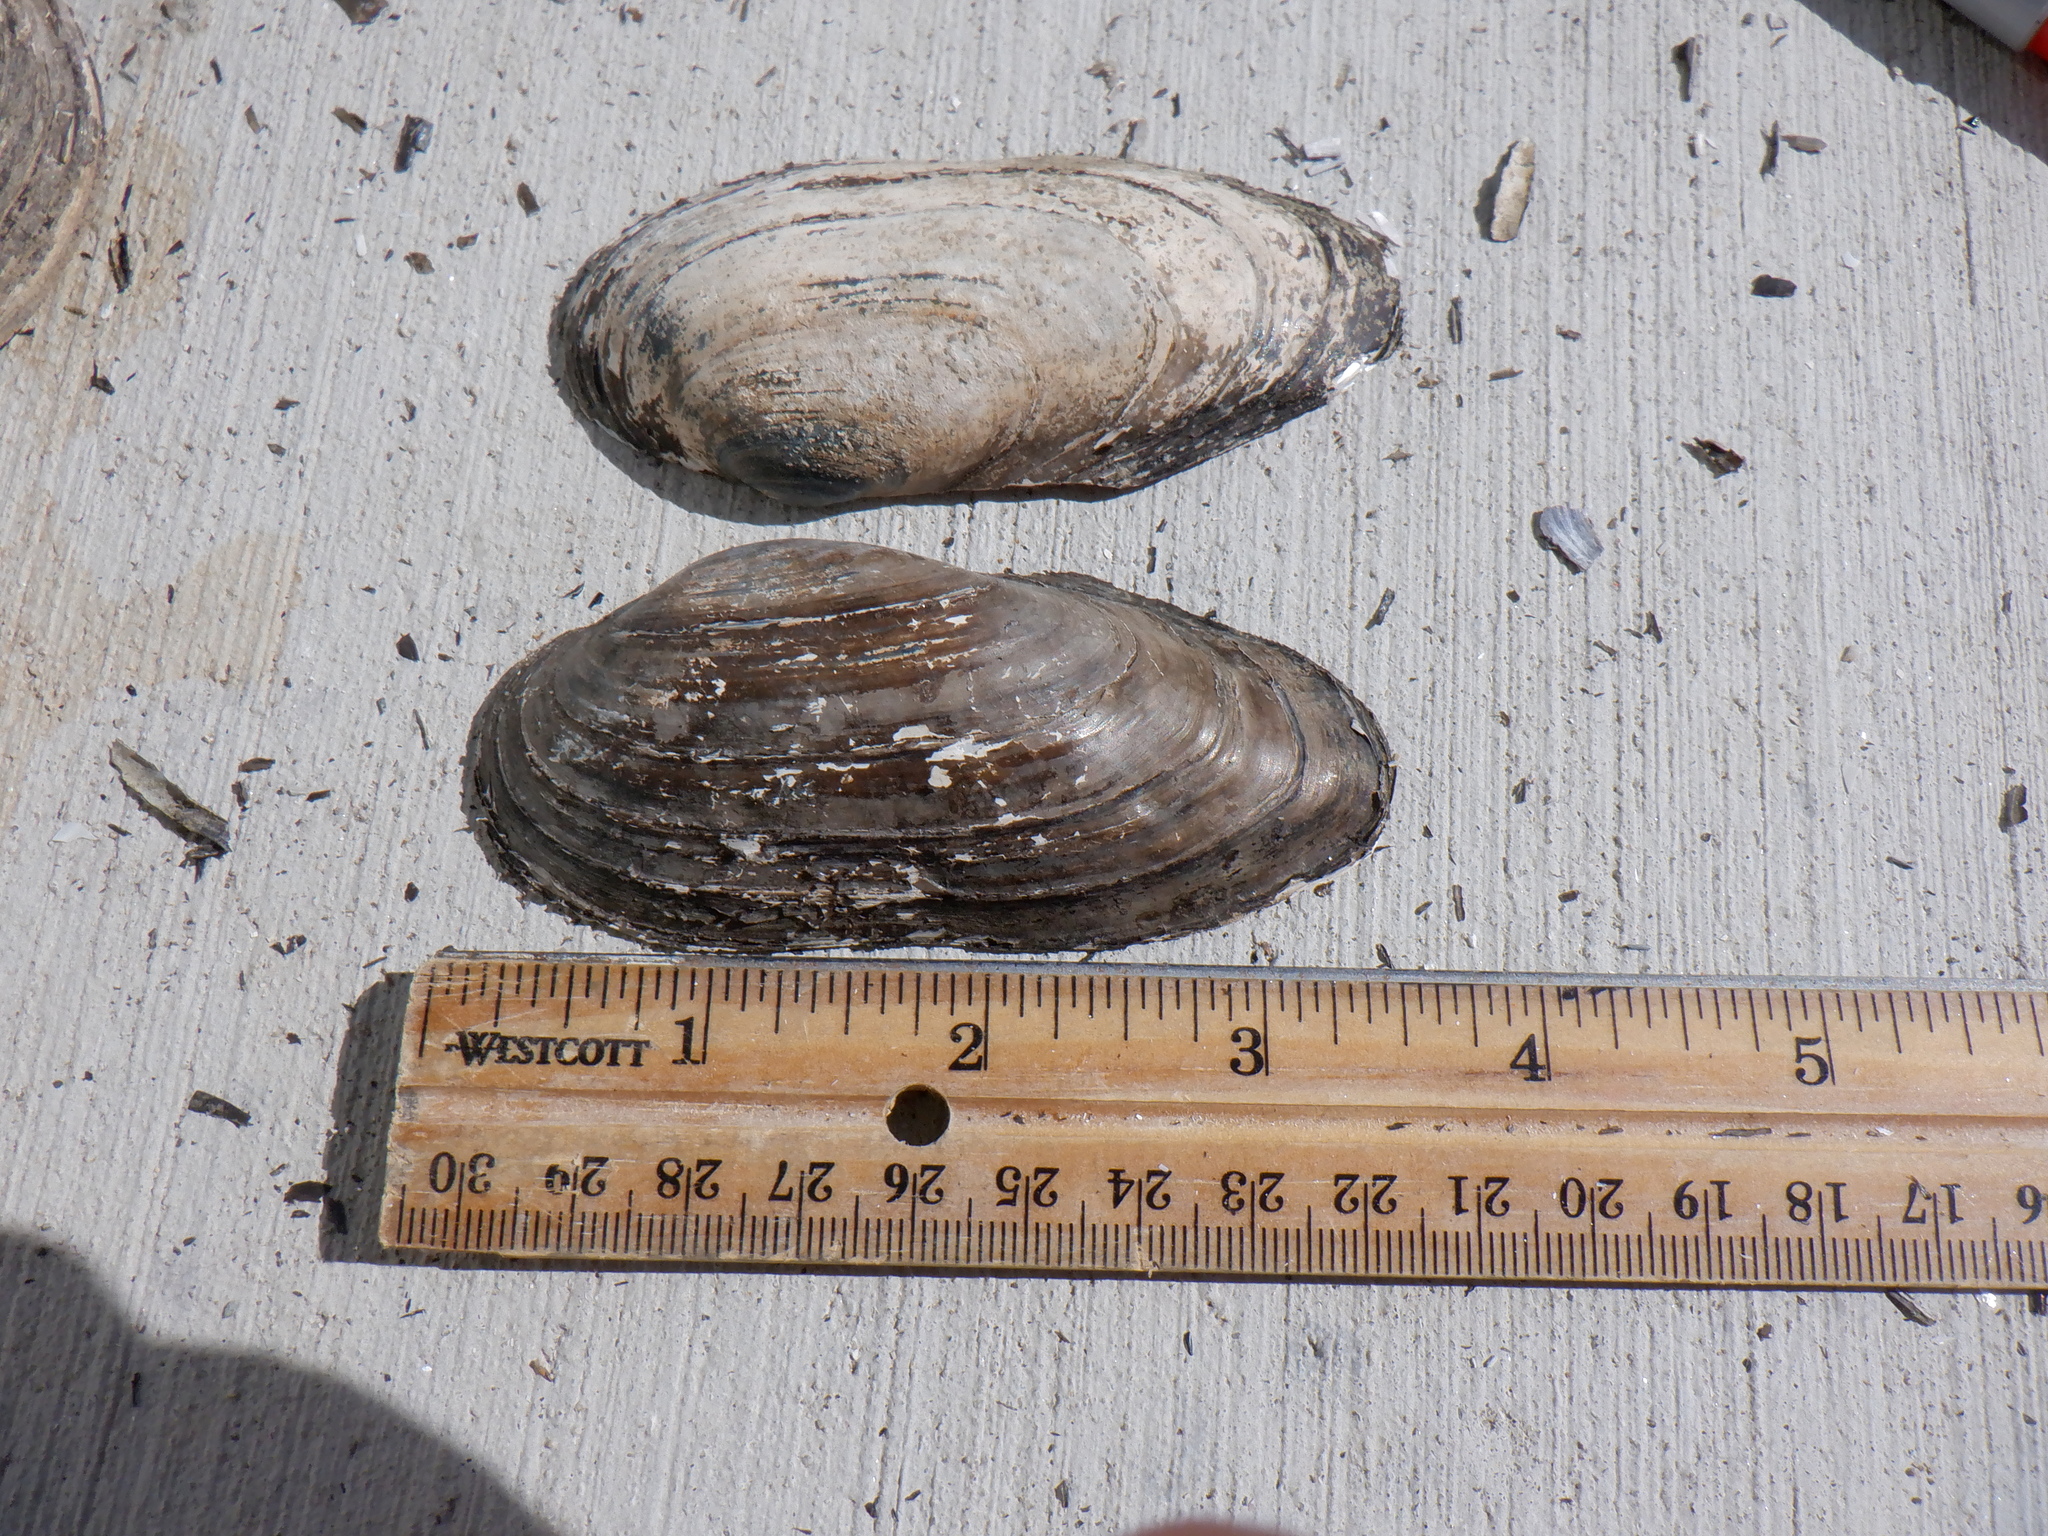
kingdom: Animalia
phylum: Mollusca
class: Bivalvia
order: Unionida
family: Unionidae
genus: Anodontoides
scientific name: Anodontoides ferussacianus
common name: Cylindrical papershell
